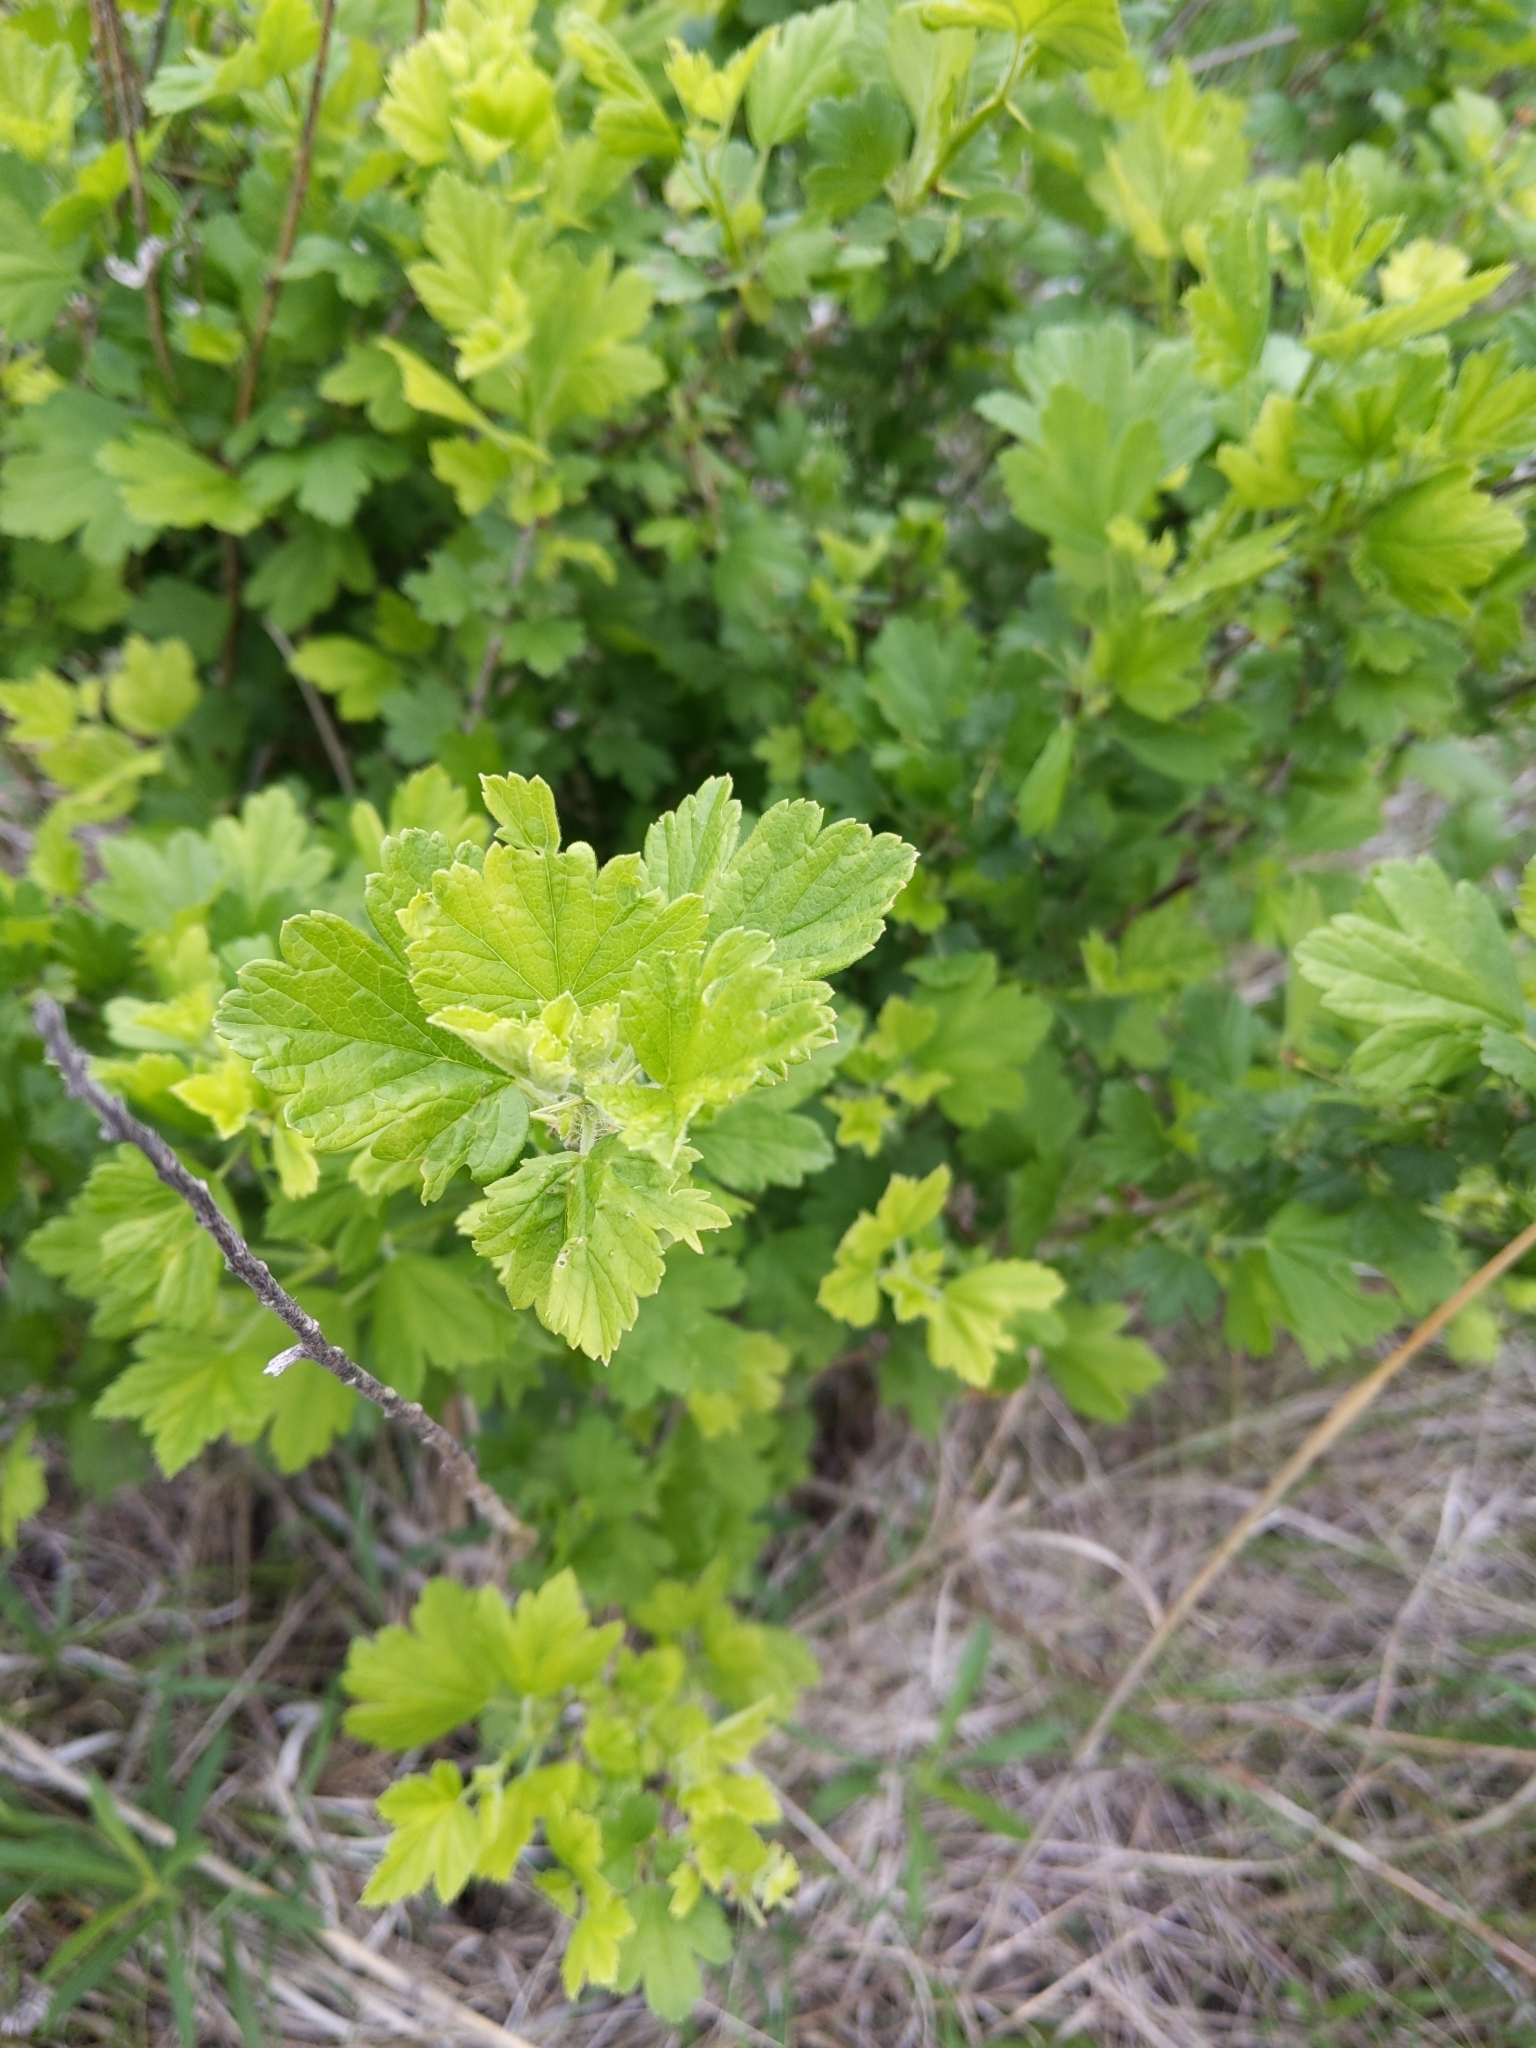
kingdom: Plantae
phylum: Tracheophyta
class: Magnoliopsida
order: Saxifragales
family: Grossulariaceae
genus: Ribes
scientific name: Ribes missouriense
